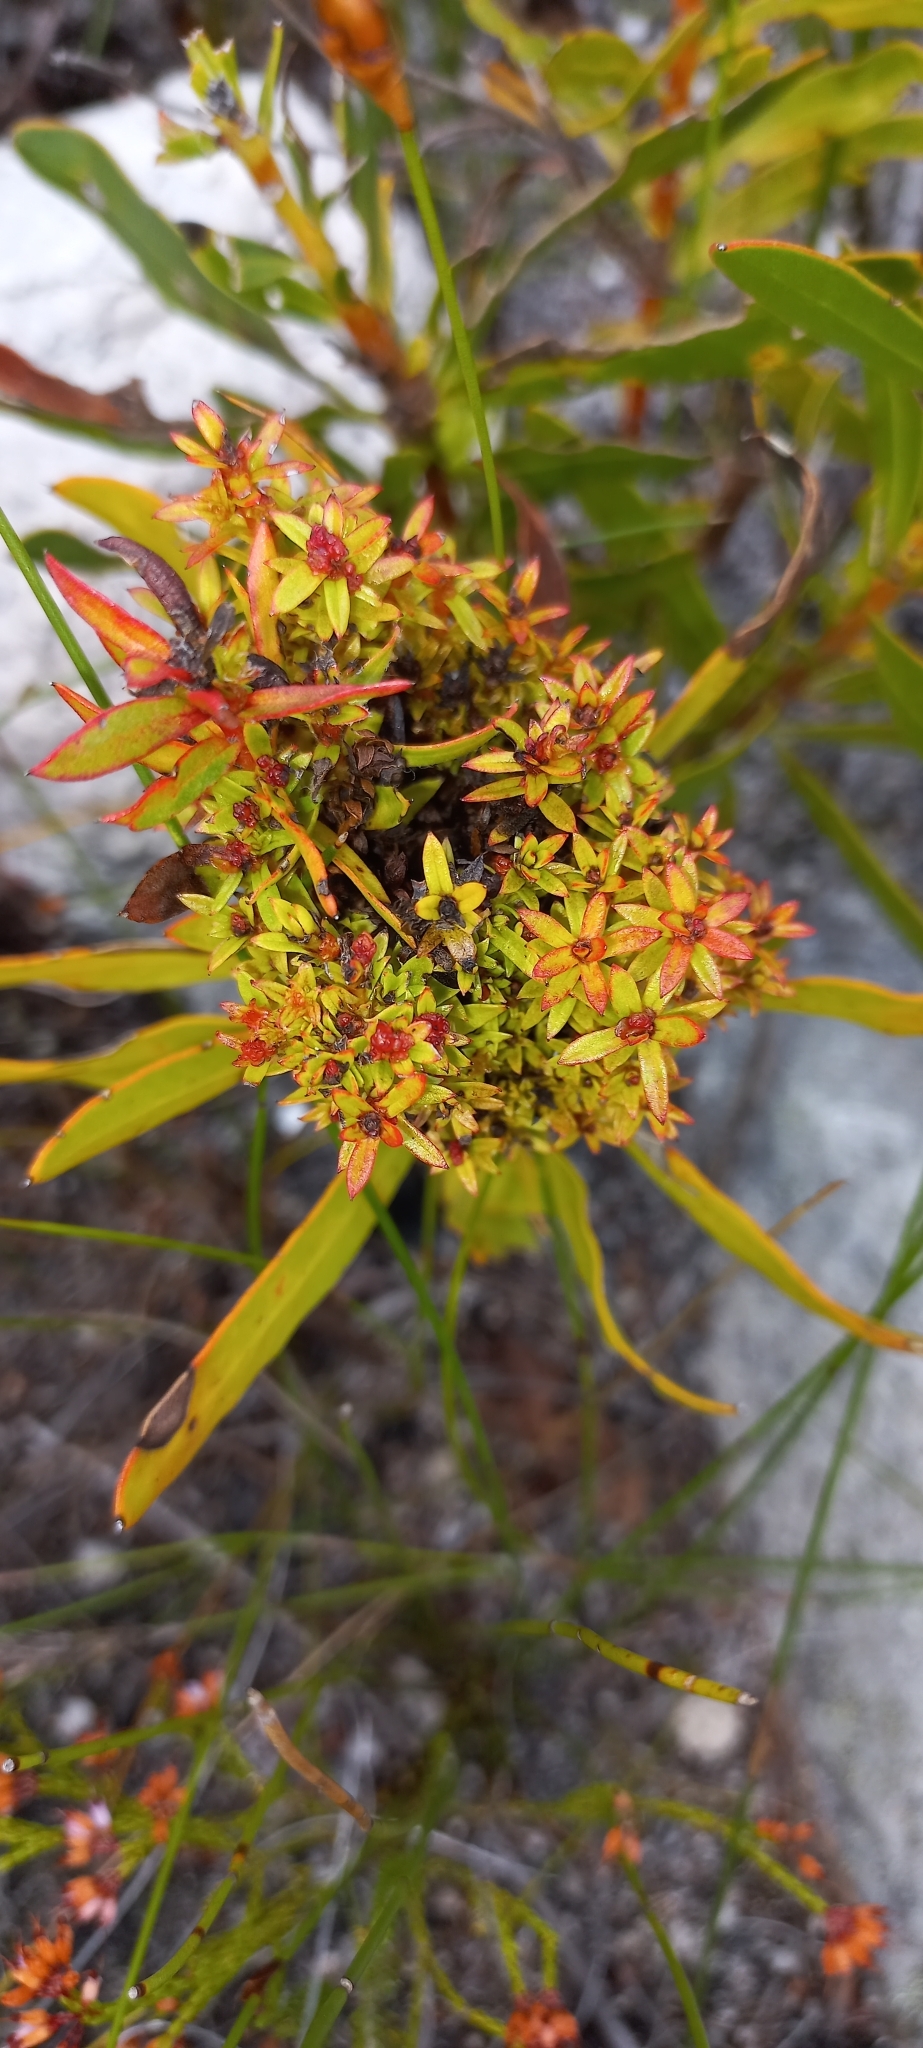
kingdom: Bacteria
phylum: Firmicutes
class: Bacilli
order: Acholeplasmatales
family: Acholeplasmataceae
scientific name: Acholeplasmataceae
